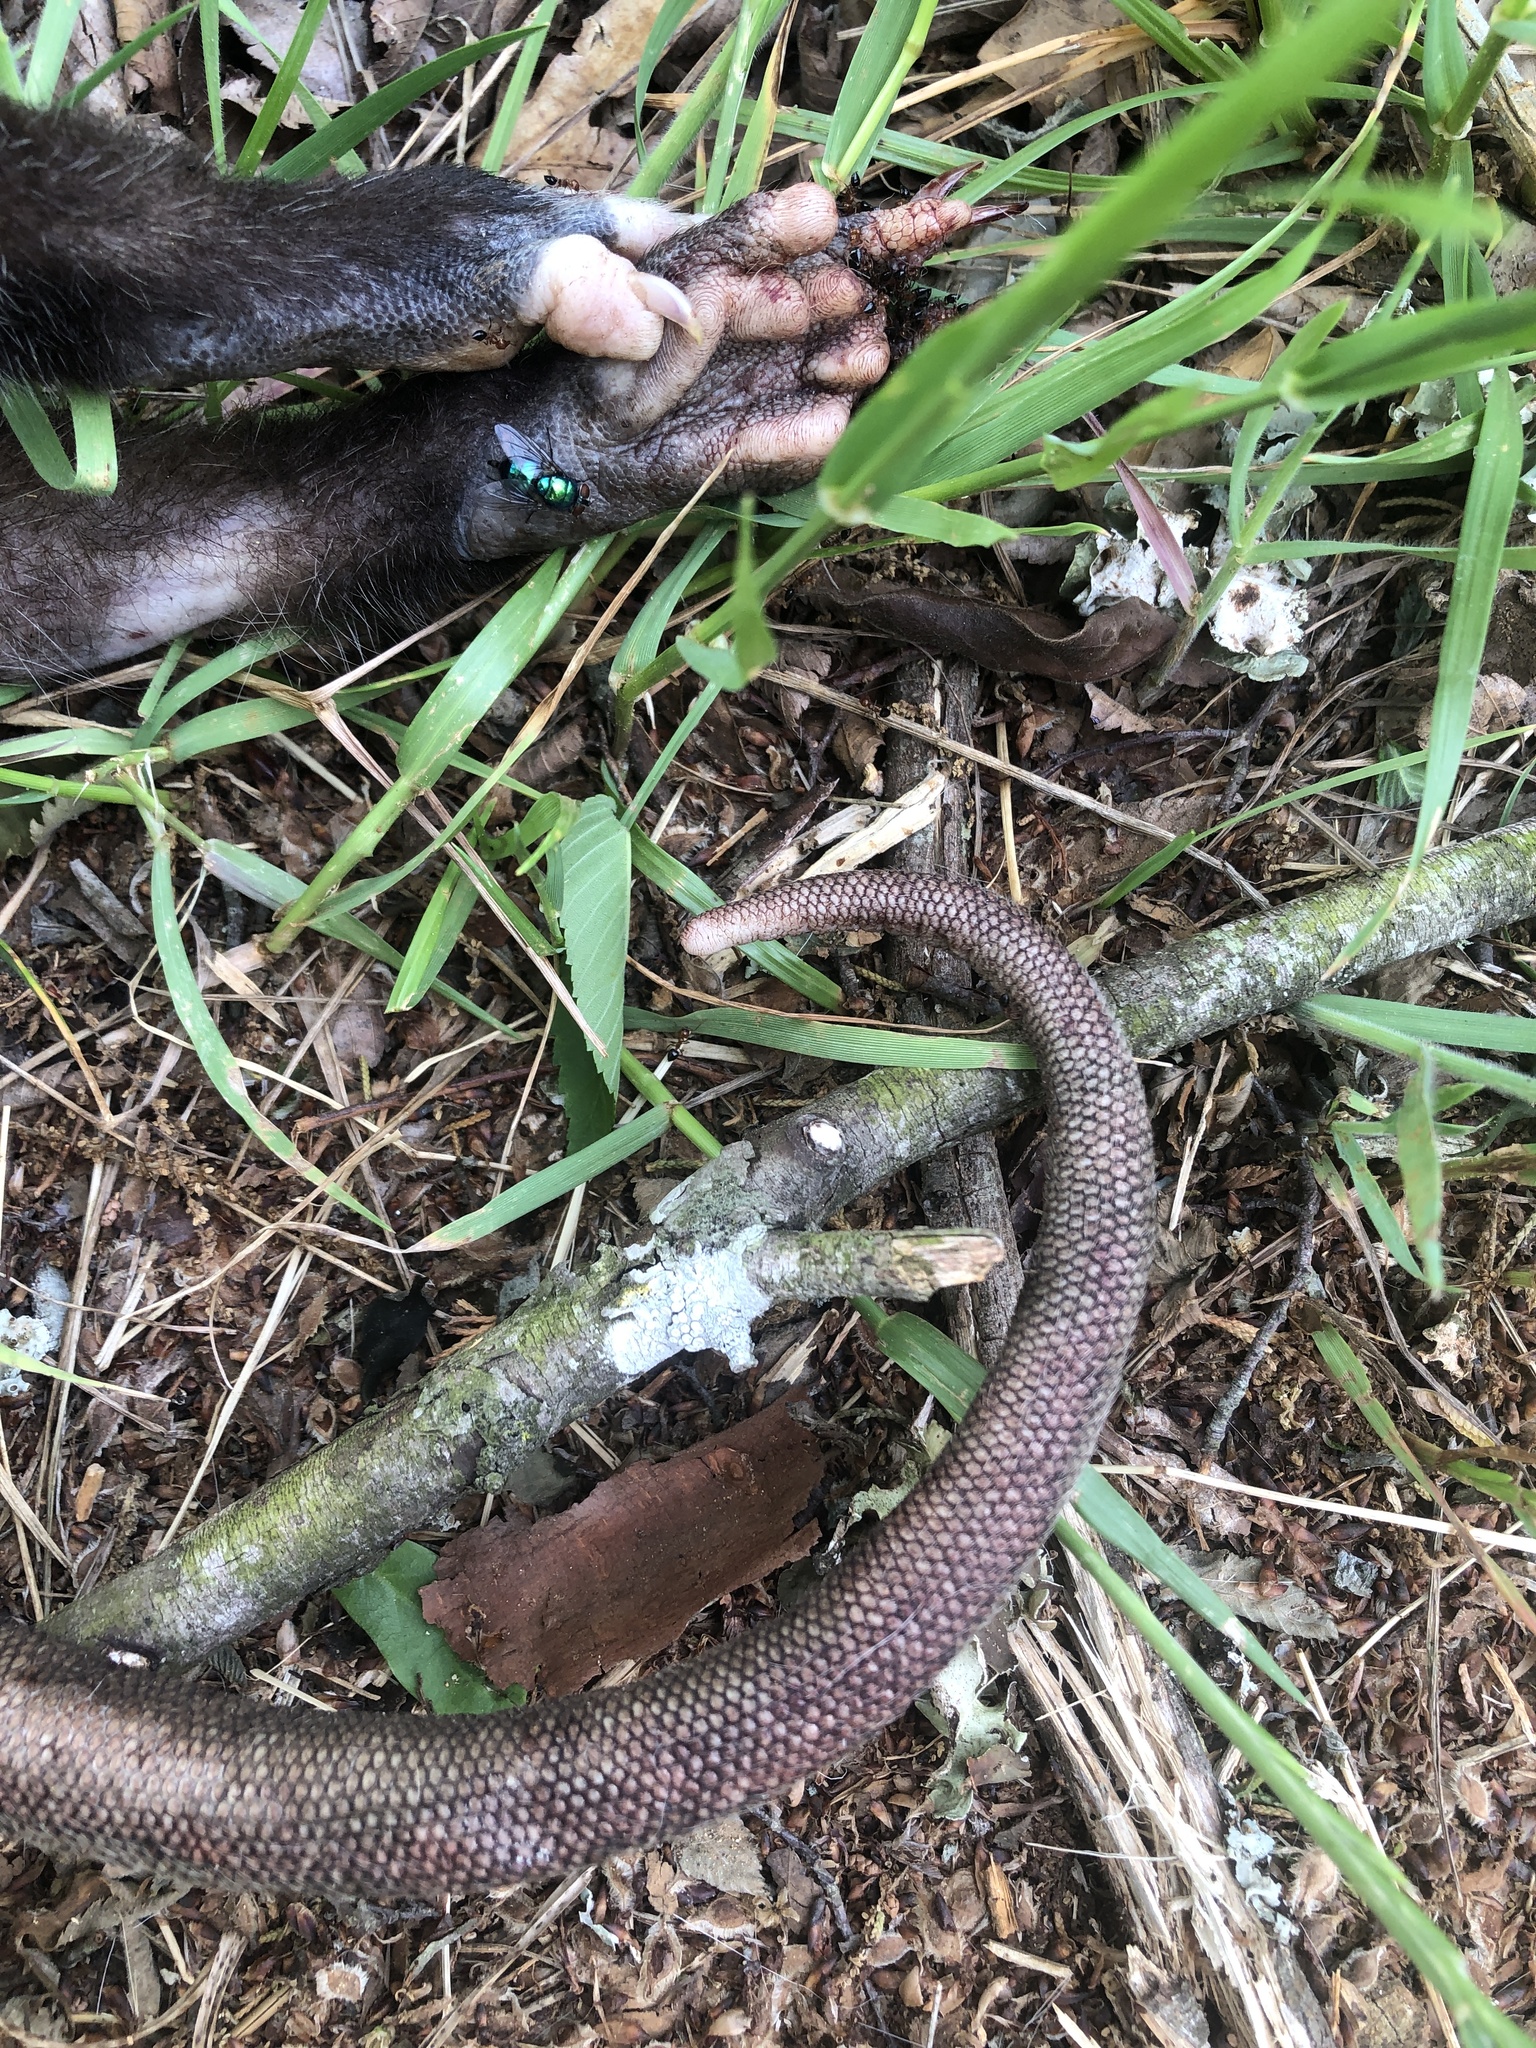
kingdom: Animalia
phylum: Chordata
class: Mammalia
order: Didelphimorphia
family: Didelphidae
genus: Didelphis
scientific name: Didelphis virginiana
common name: Virginia opossum
